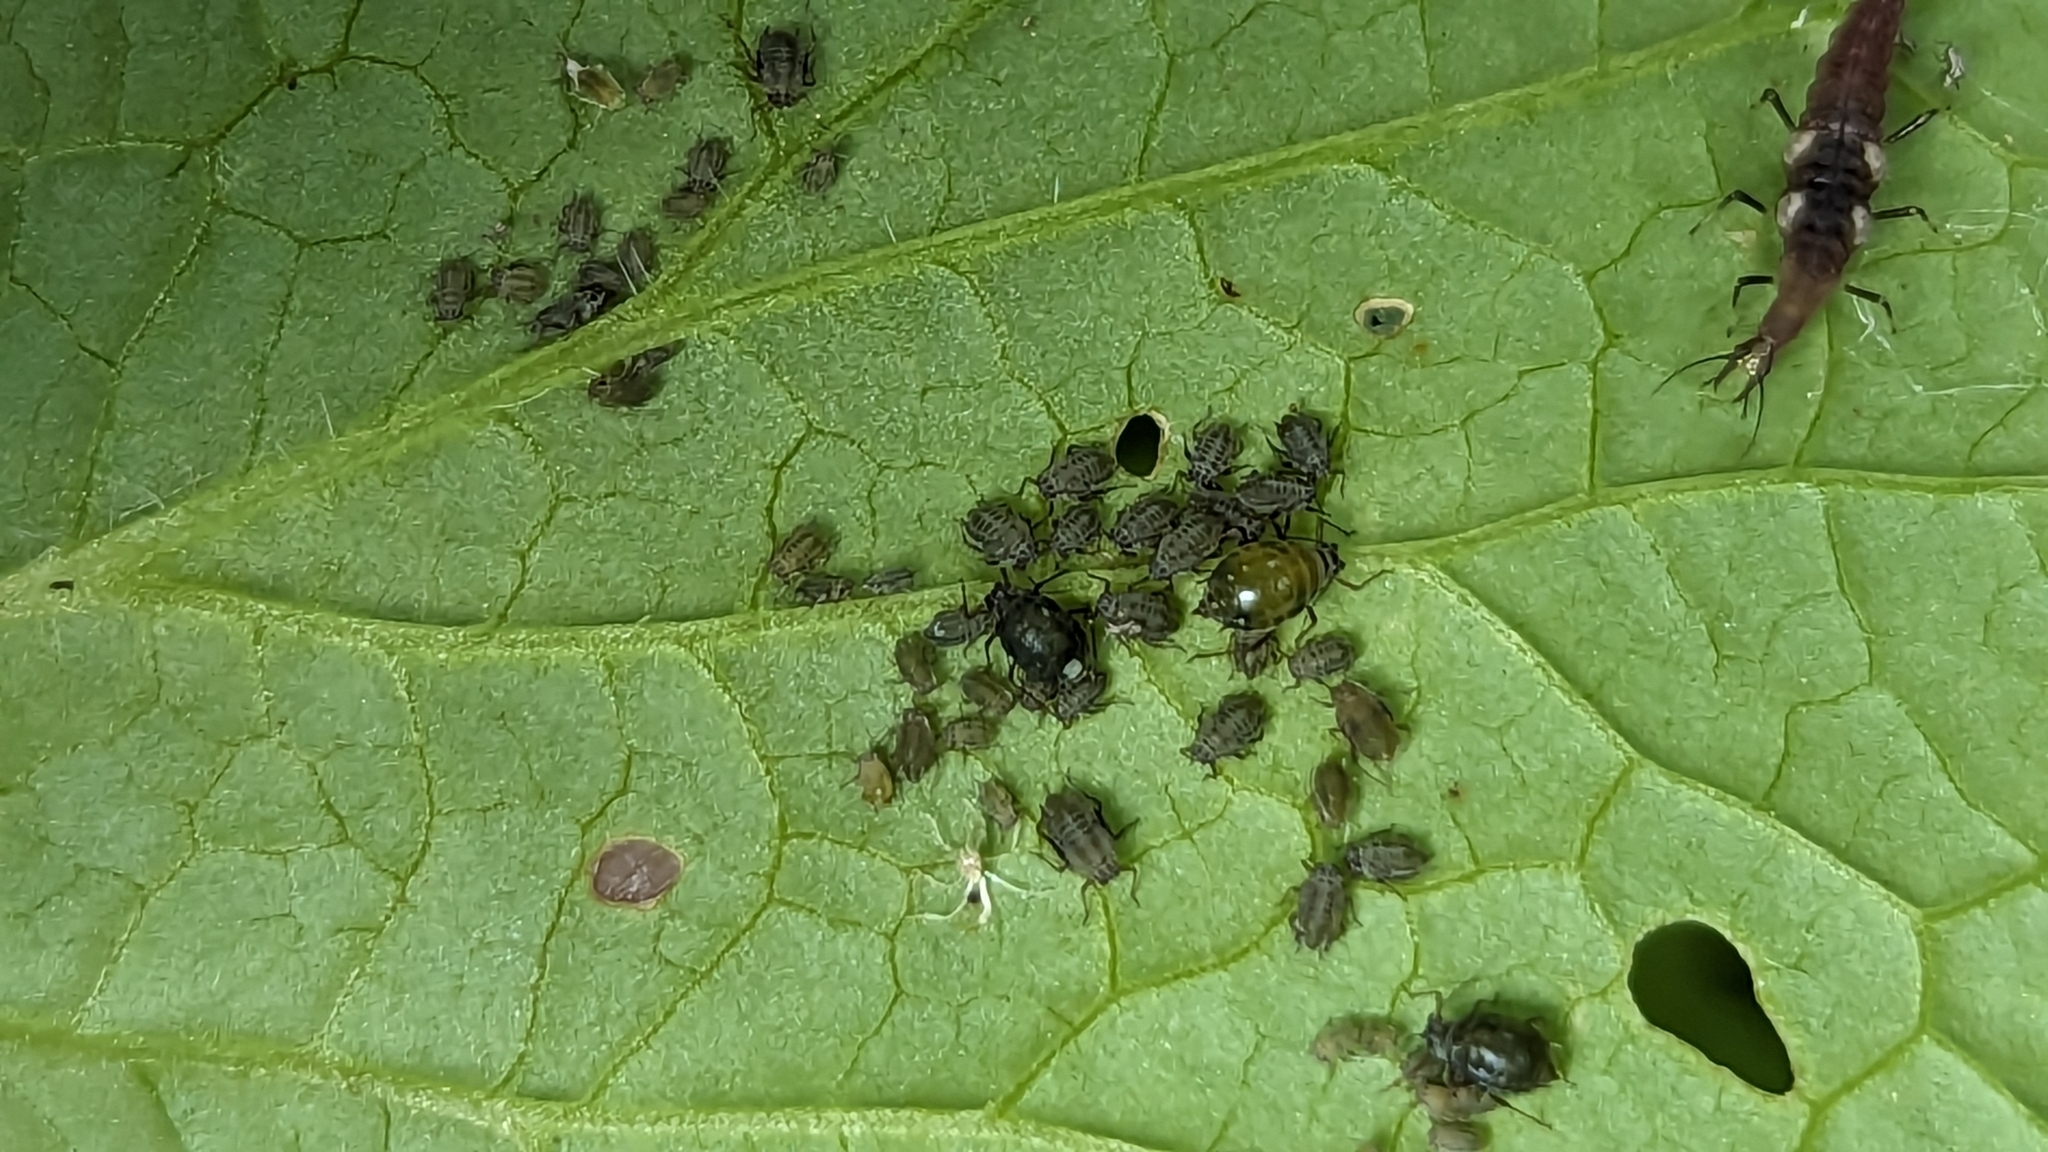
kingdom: Animalia
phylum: Arthropoda
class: Insecta
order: Hemiptera
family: Aphididae
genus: Lipaphis
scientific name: Lipaphis pseudobrassicae
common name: Turnip aphid
